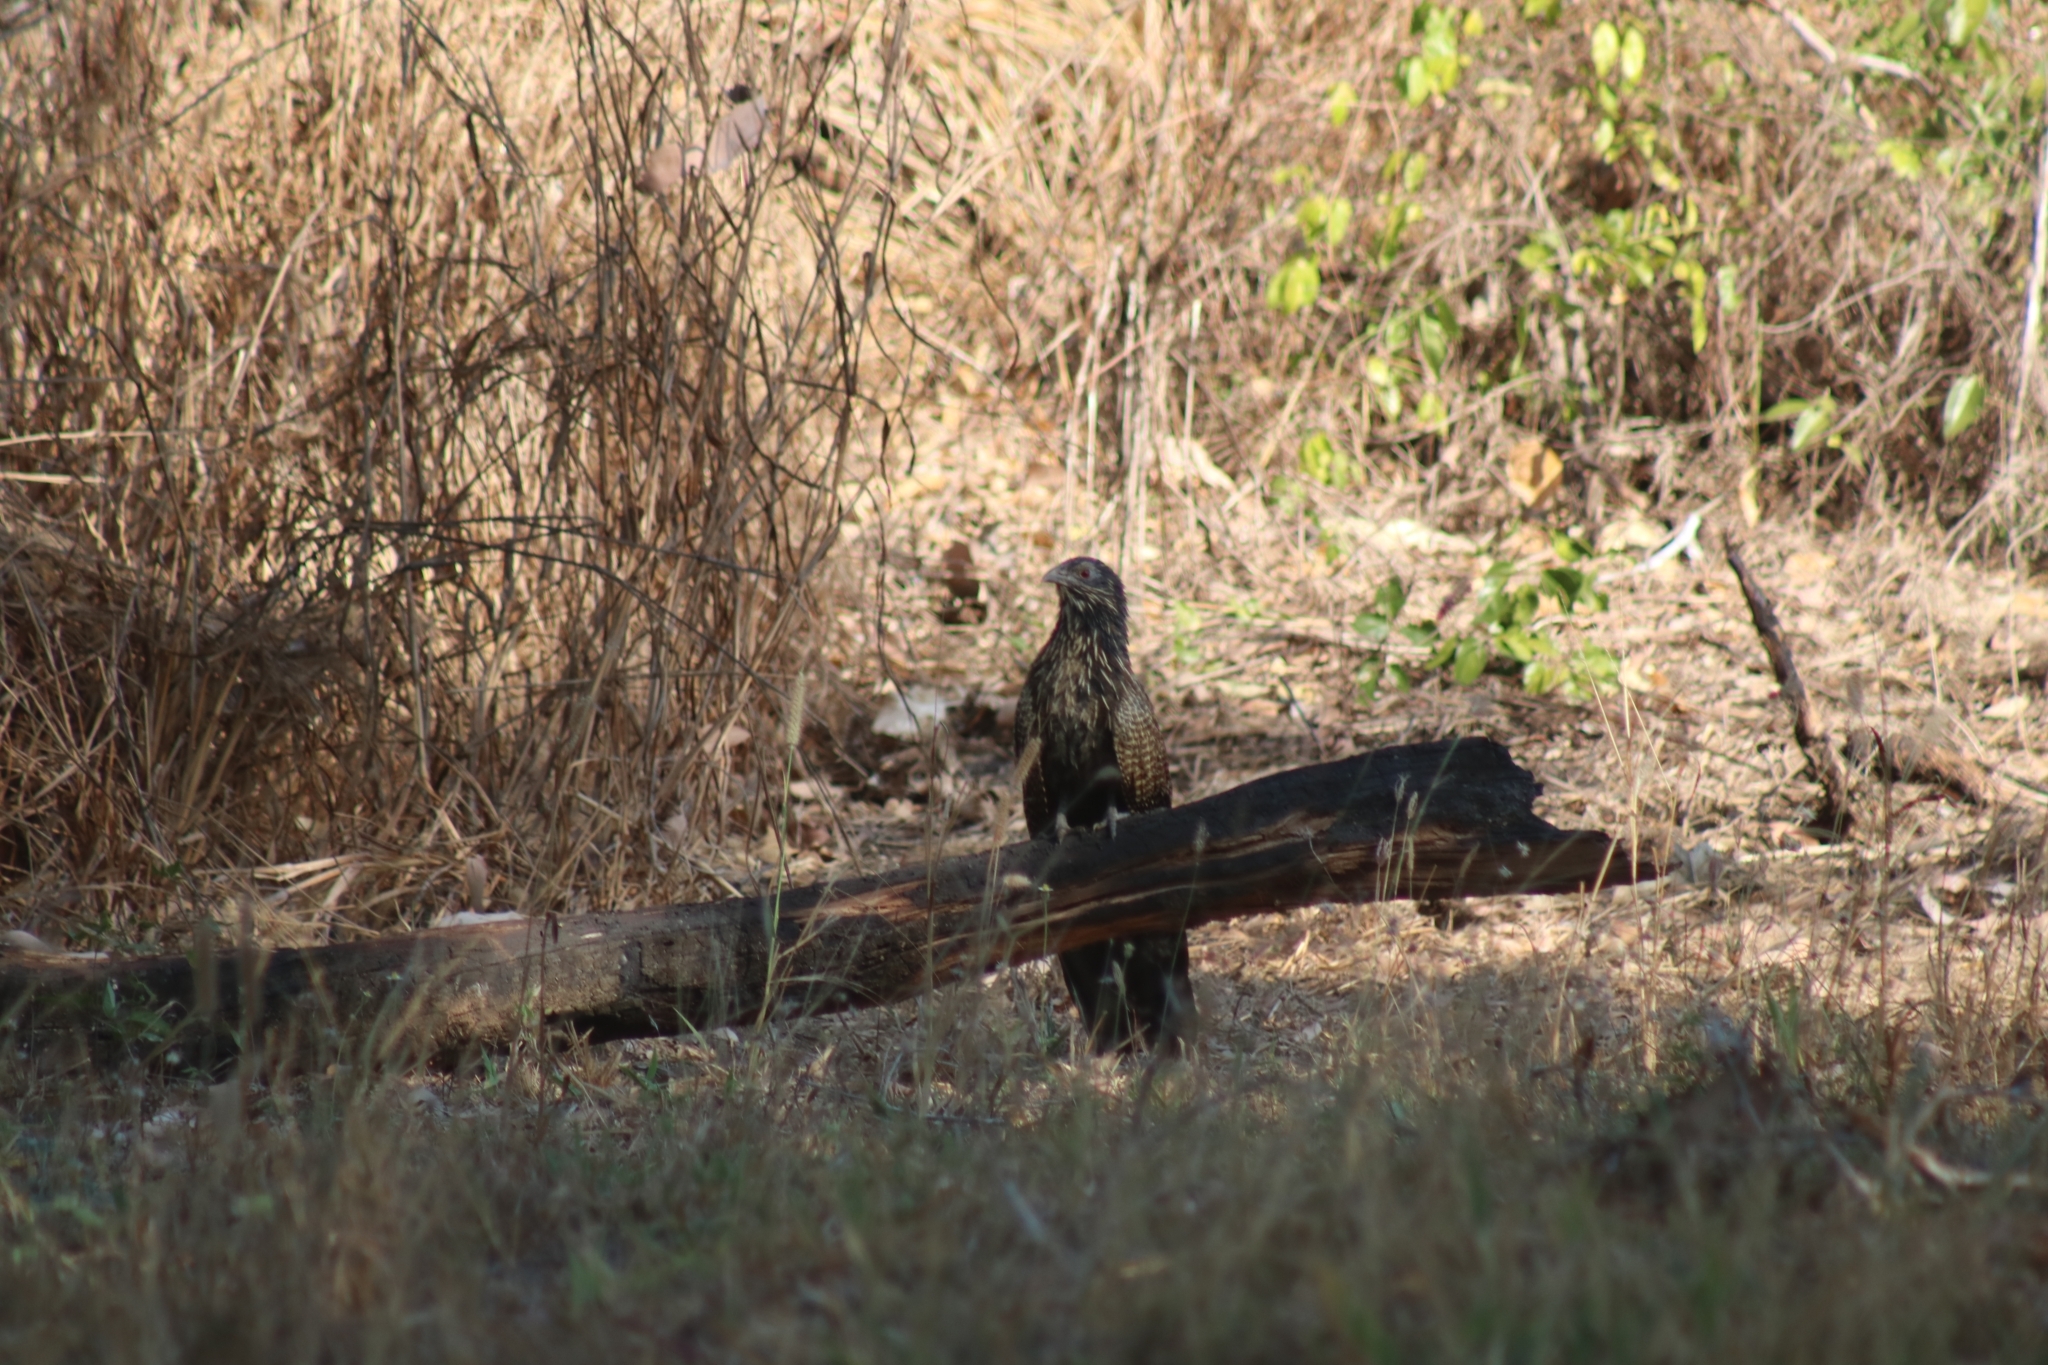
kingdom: Animalia
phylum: Chordata
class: Aves
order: Cuculiformes
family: Cuculidae
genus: Centropus
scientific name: Centropus phasianinus
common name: Pheasant coucal
